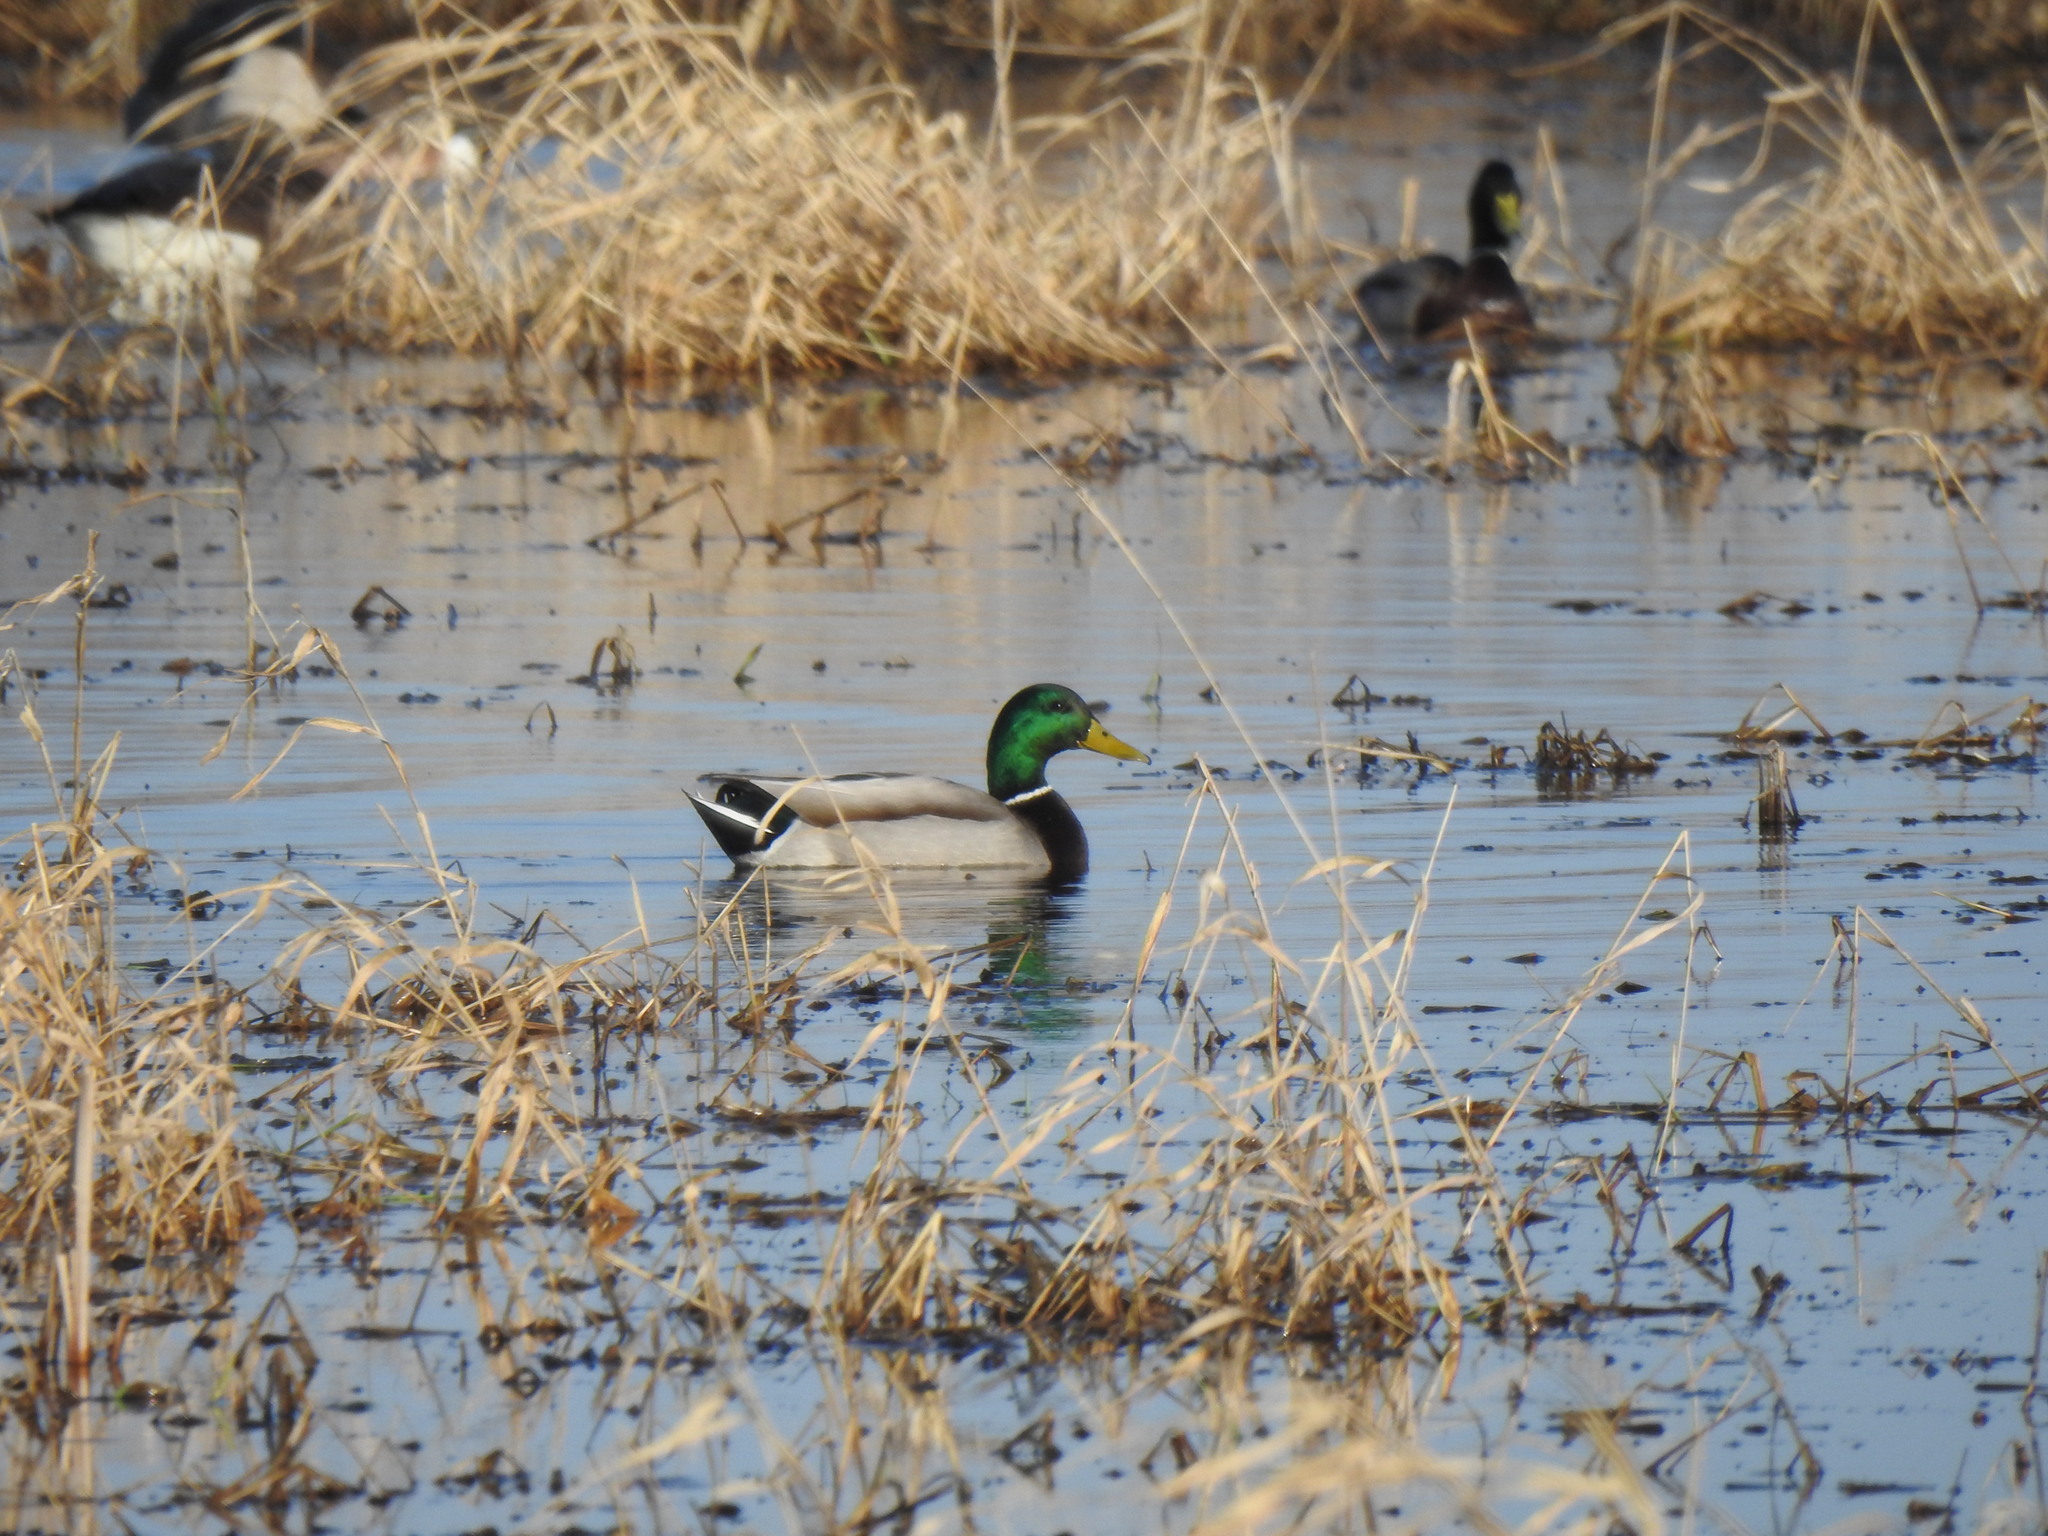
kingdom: Animalia
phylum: Chordata
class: Aves
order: Anseriformes
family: Anatidae
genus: Anas
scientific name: Anas platyrhynchos
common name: Mallard
